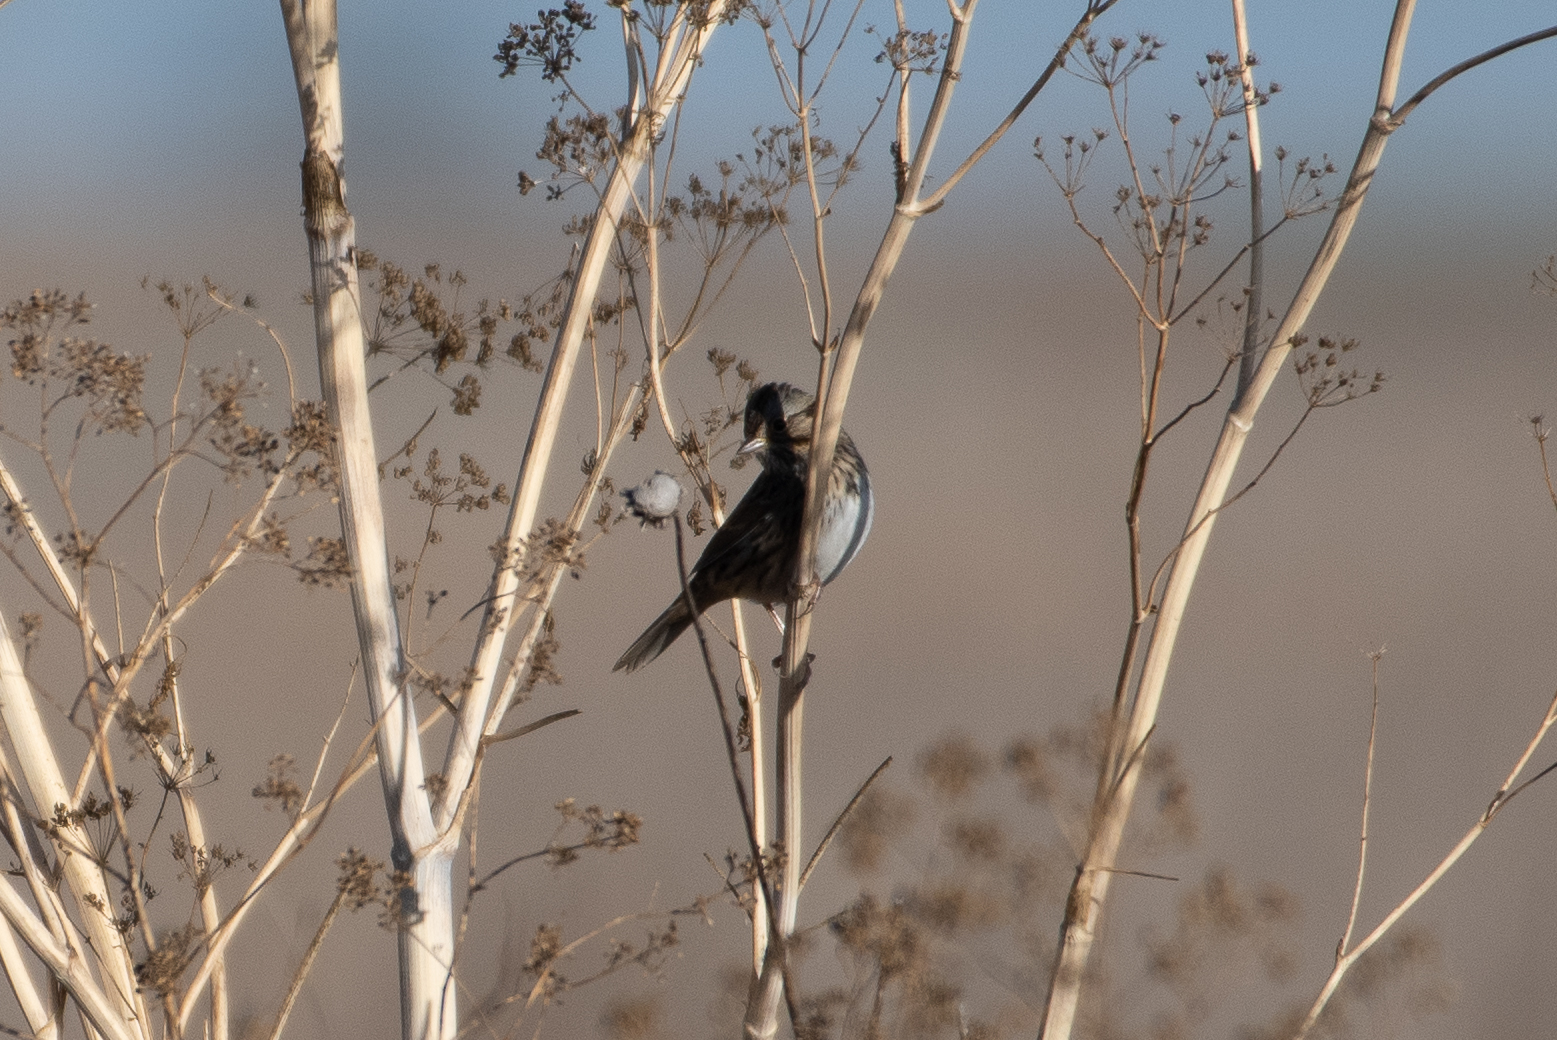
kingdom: Animalia
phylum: Chordata
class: Aves
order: Passeriformes
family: Passerellidae
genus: Melospiza
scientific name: Melospiza lincolnii
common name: Lincoln's sparrow
